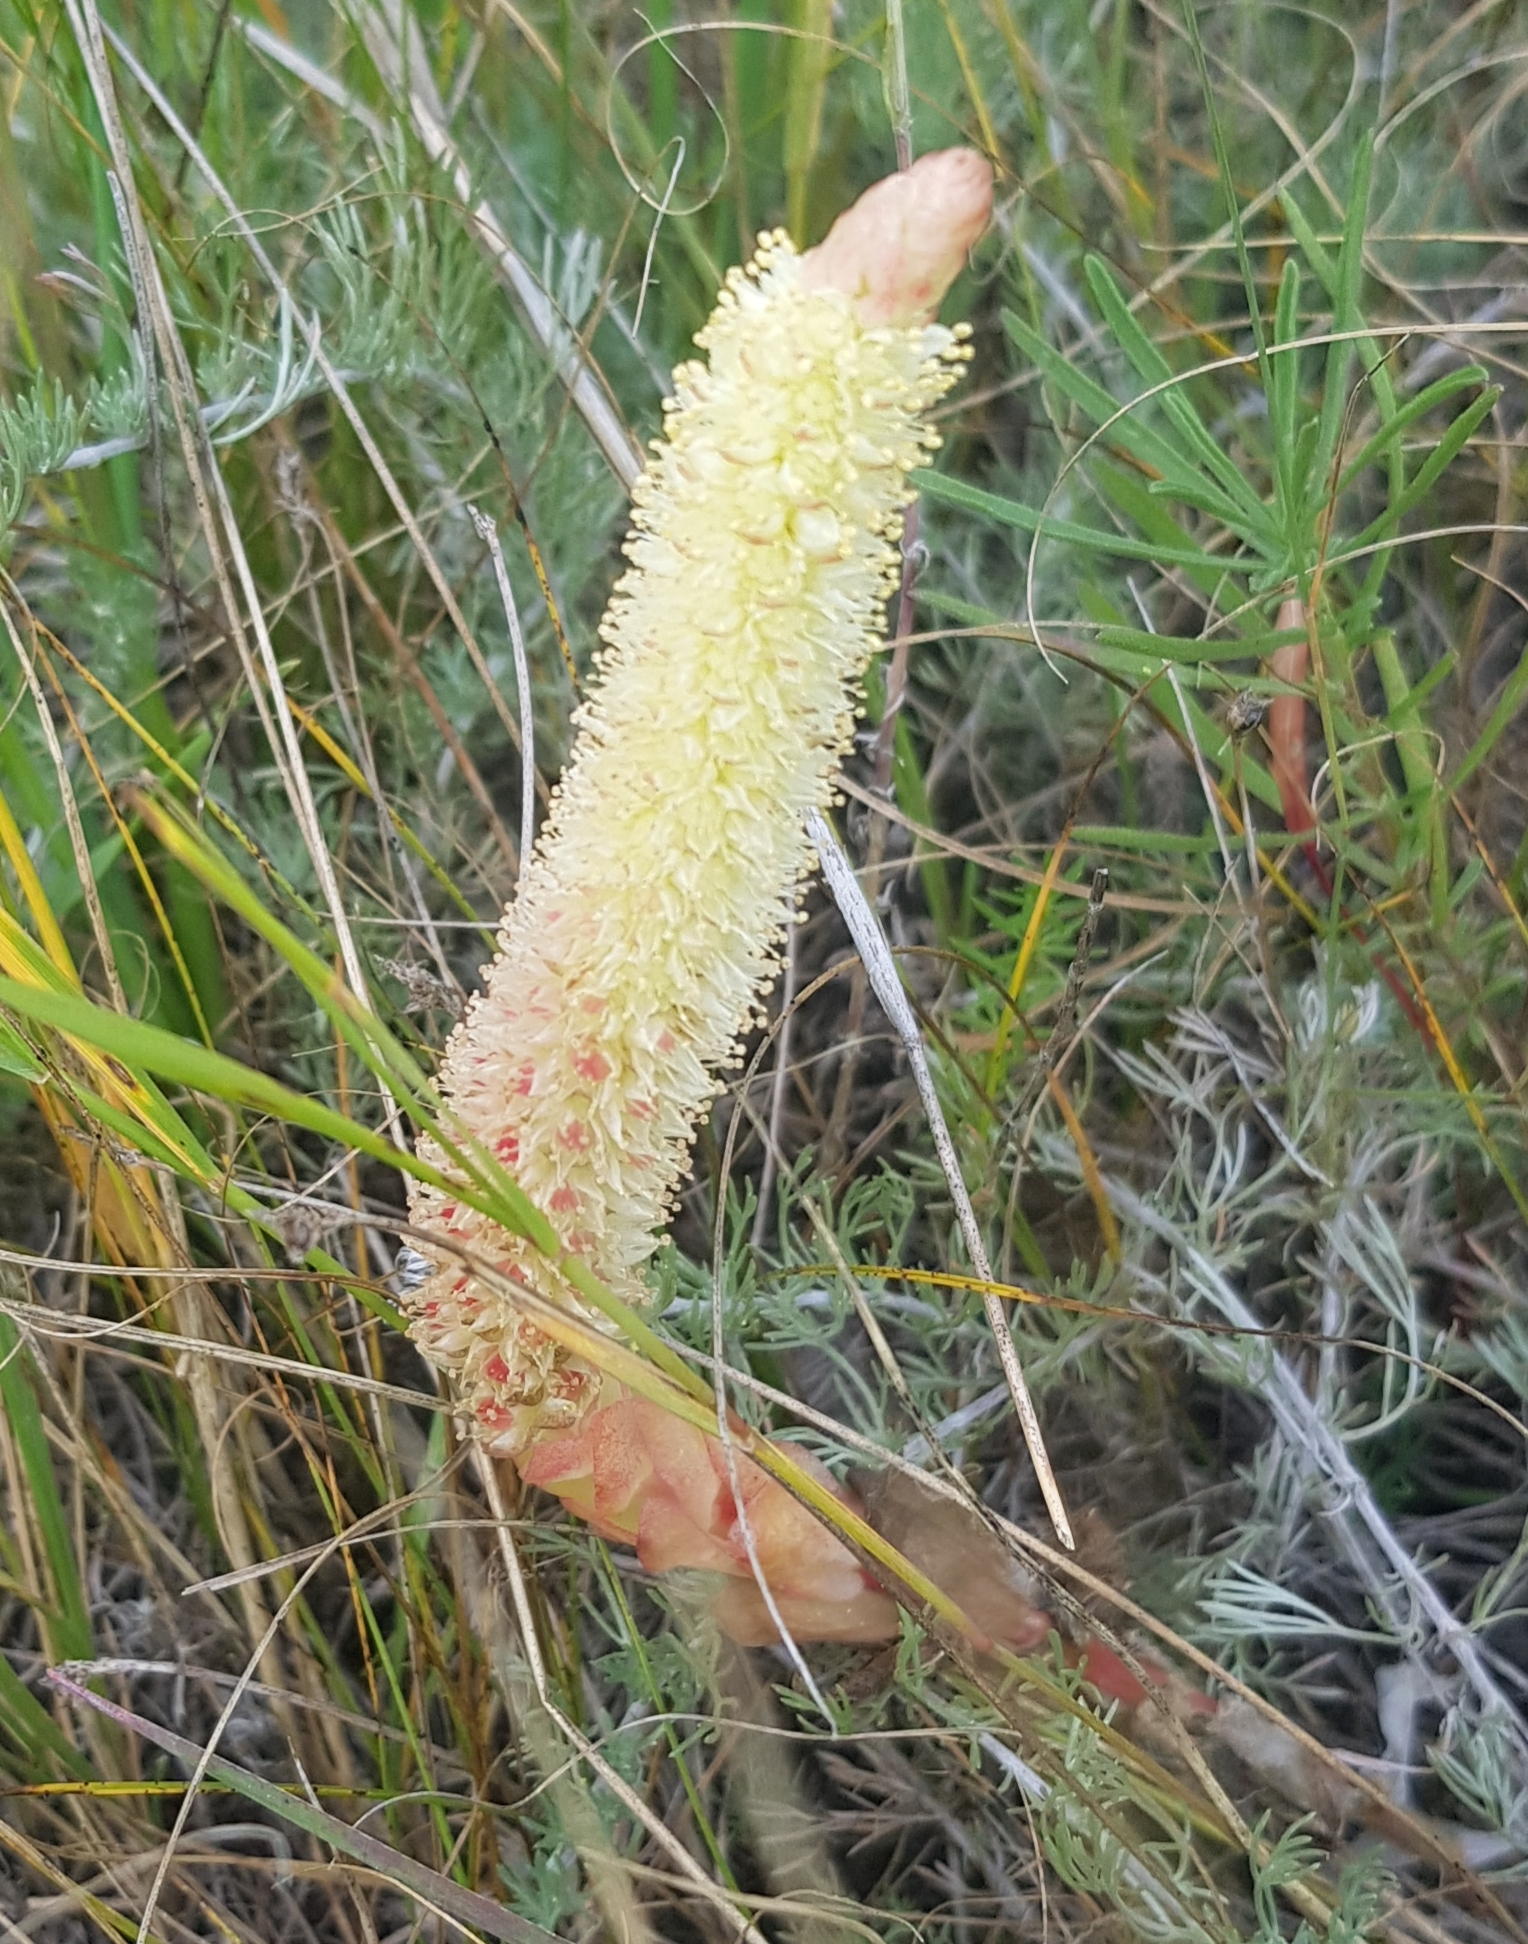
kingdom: Plantae
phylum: Tracheophyta
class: Magnoliopsida
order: Saxifragales
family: Crassulaceae
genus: Orostachys
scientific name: Orostachys malacophylla
